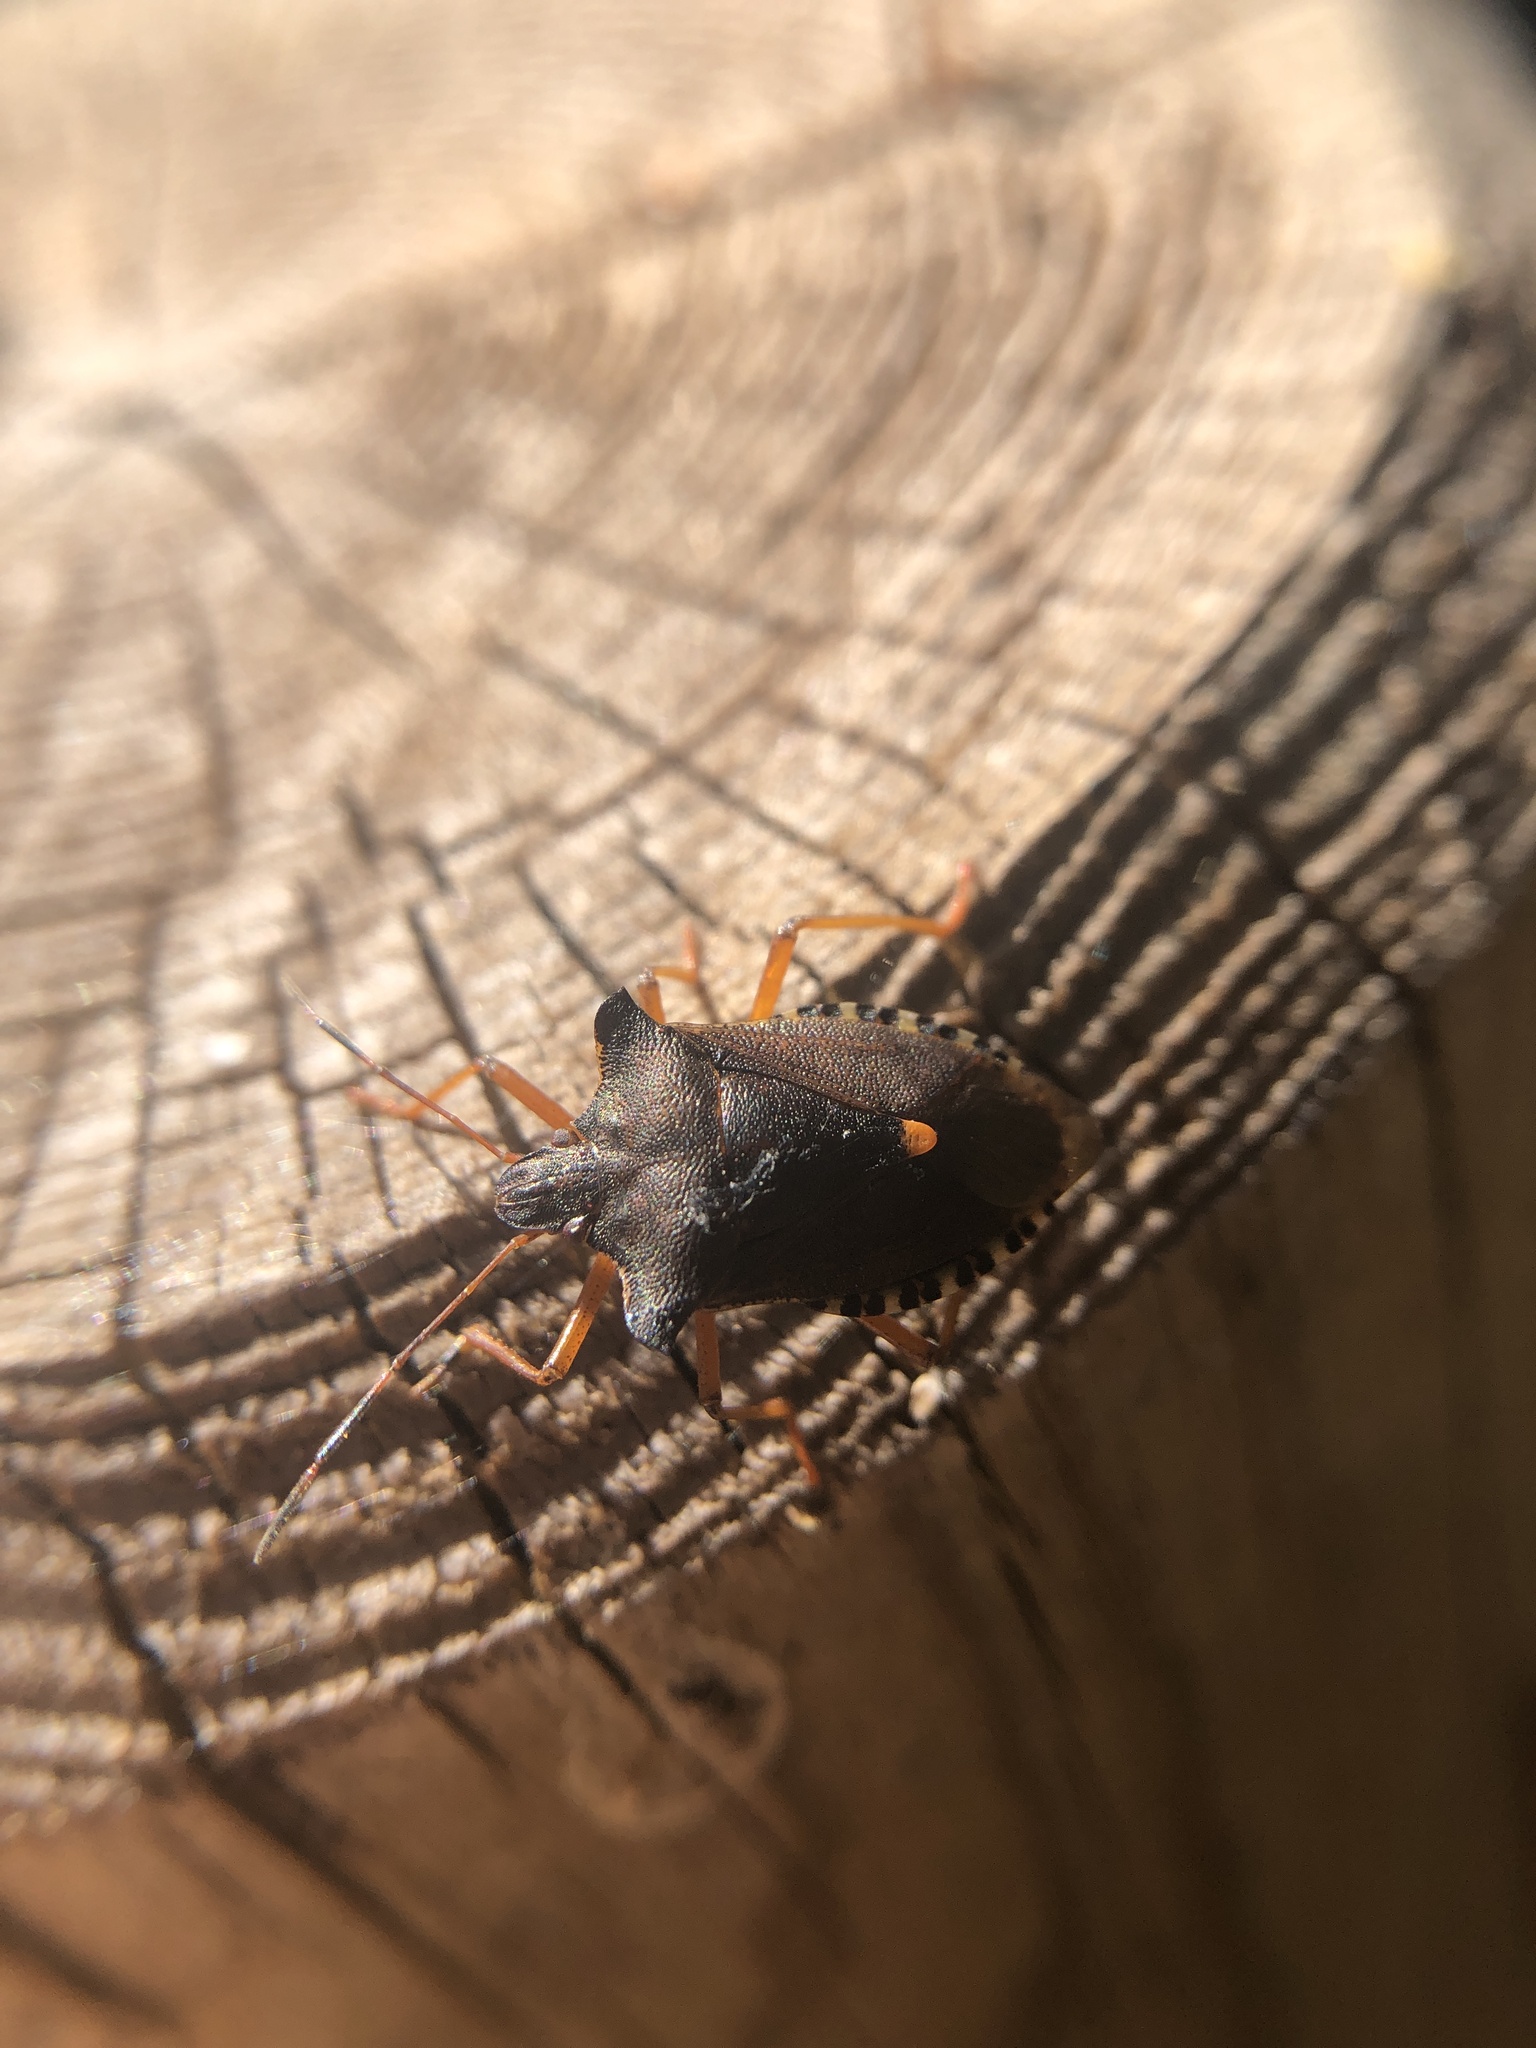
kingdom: Animalia
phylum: Arthropoda
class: Insecta
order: Hemiptera
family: Pentatomidae
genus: Pentatoma
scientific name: Pentatoma rufipes
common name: Forest bug
